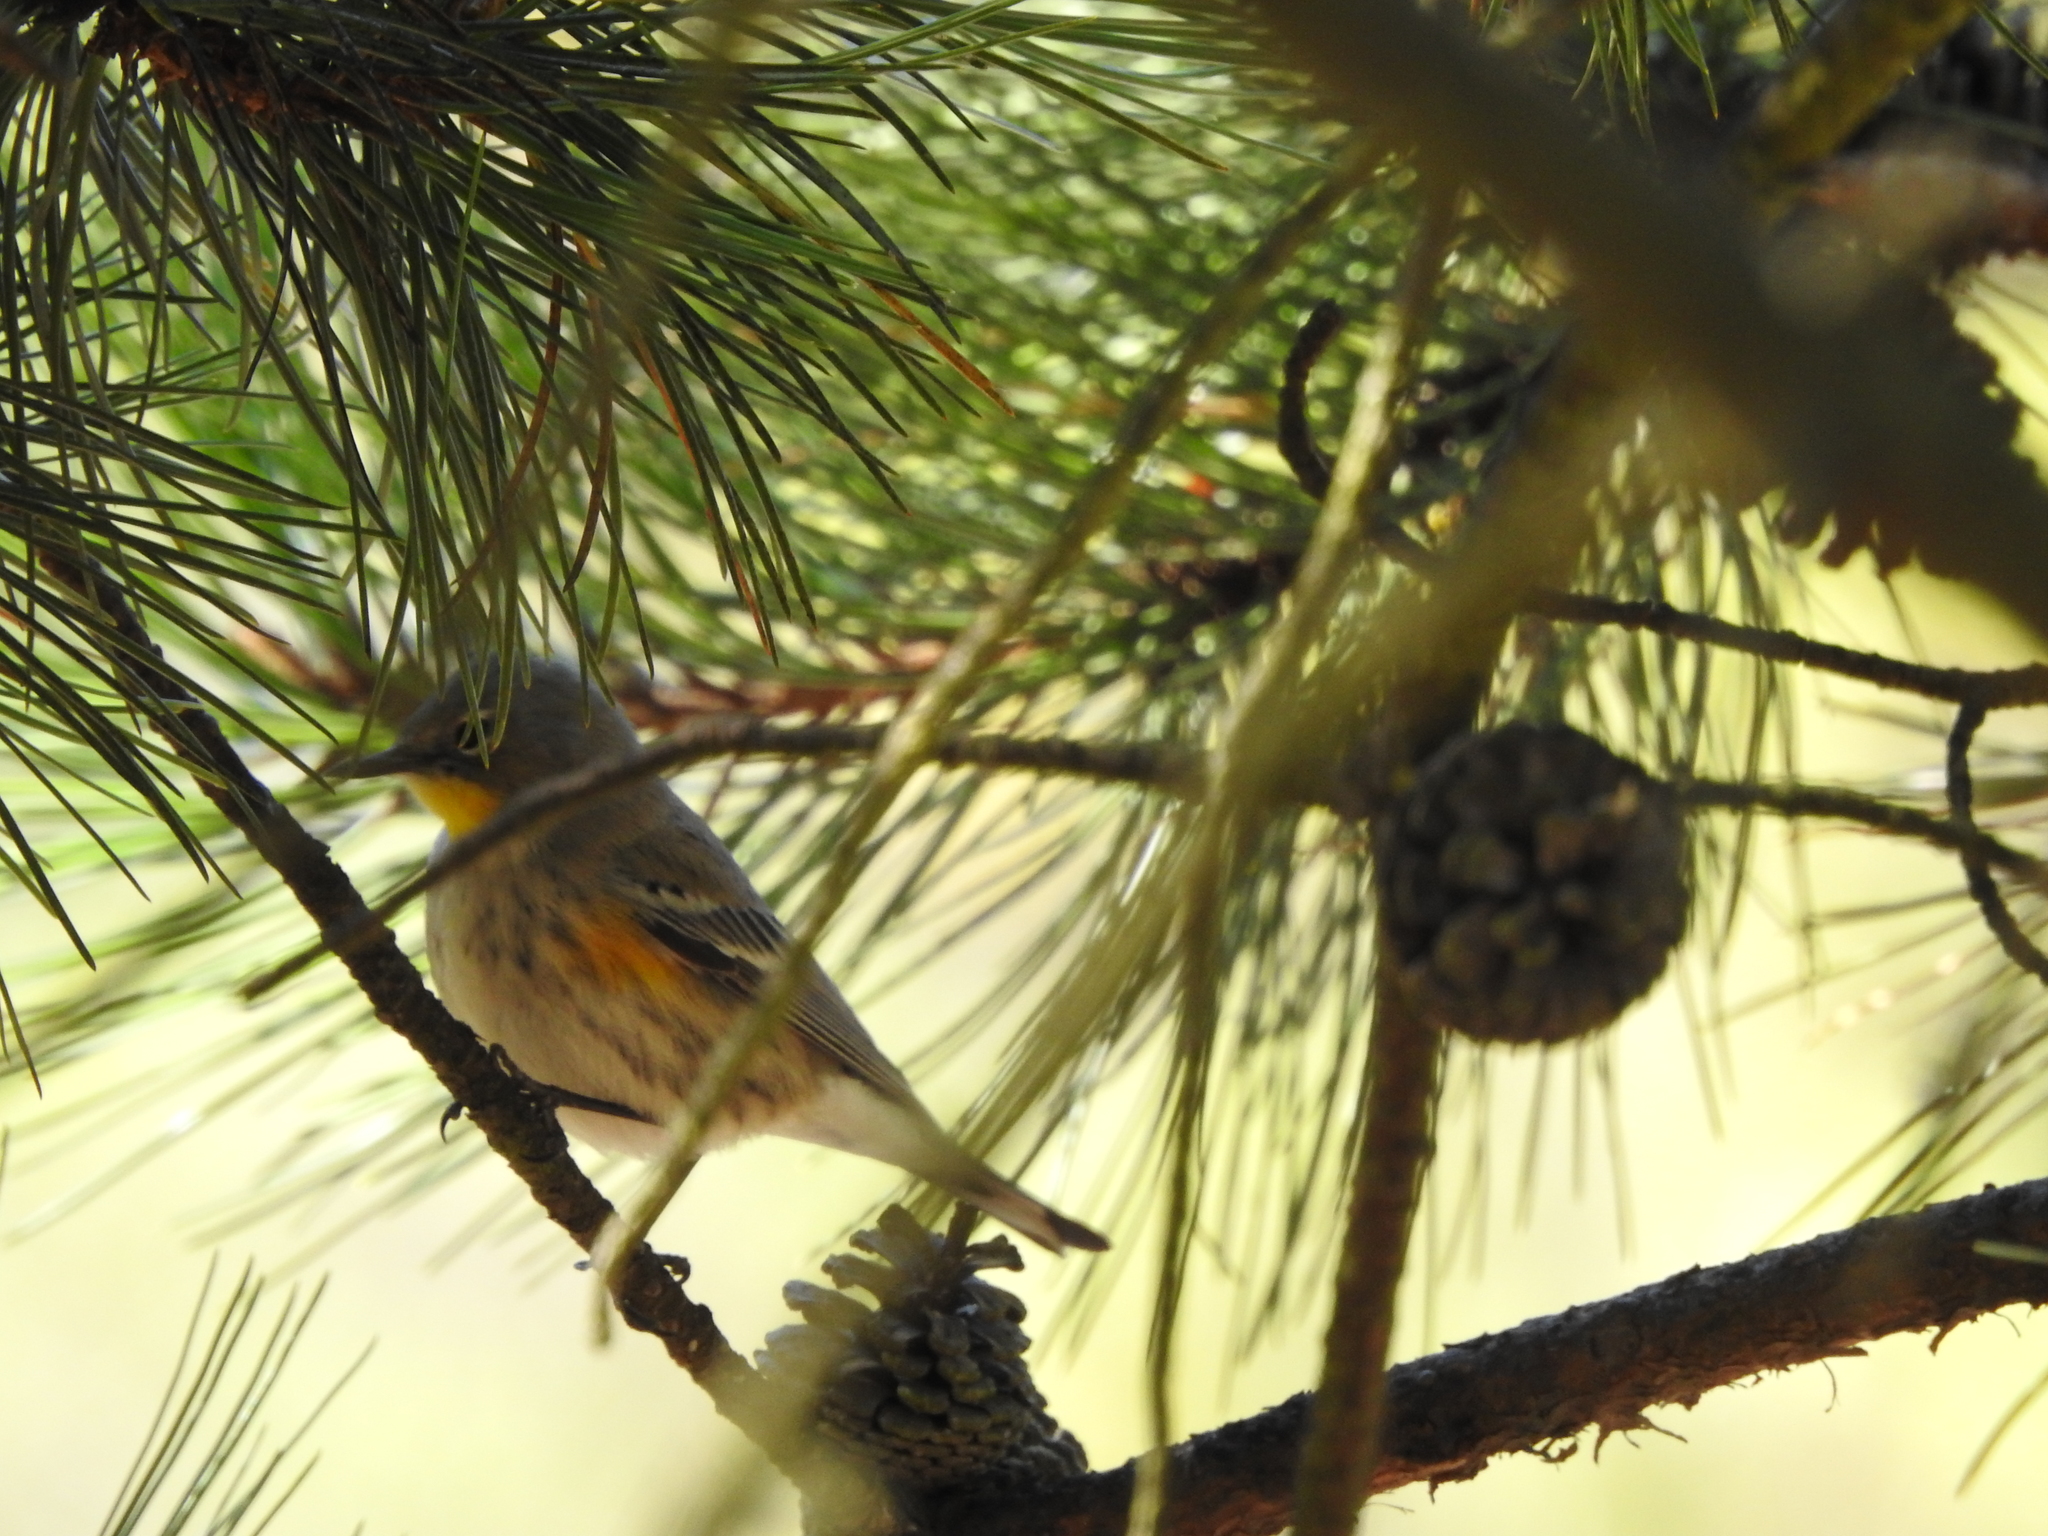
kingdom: Animalia
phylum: Chordata
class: Aves
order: Passeriformes
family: Parulidae
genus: Setophaga
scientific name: Setophaga coronata
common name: Myrtle warbler
